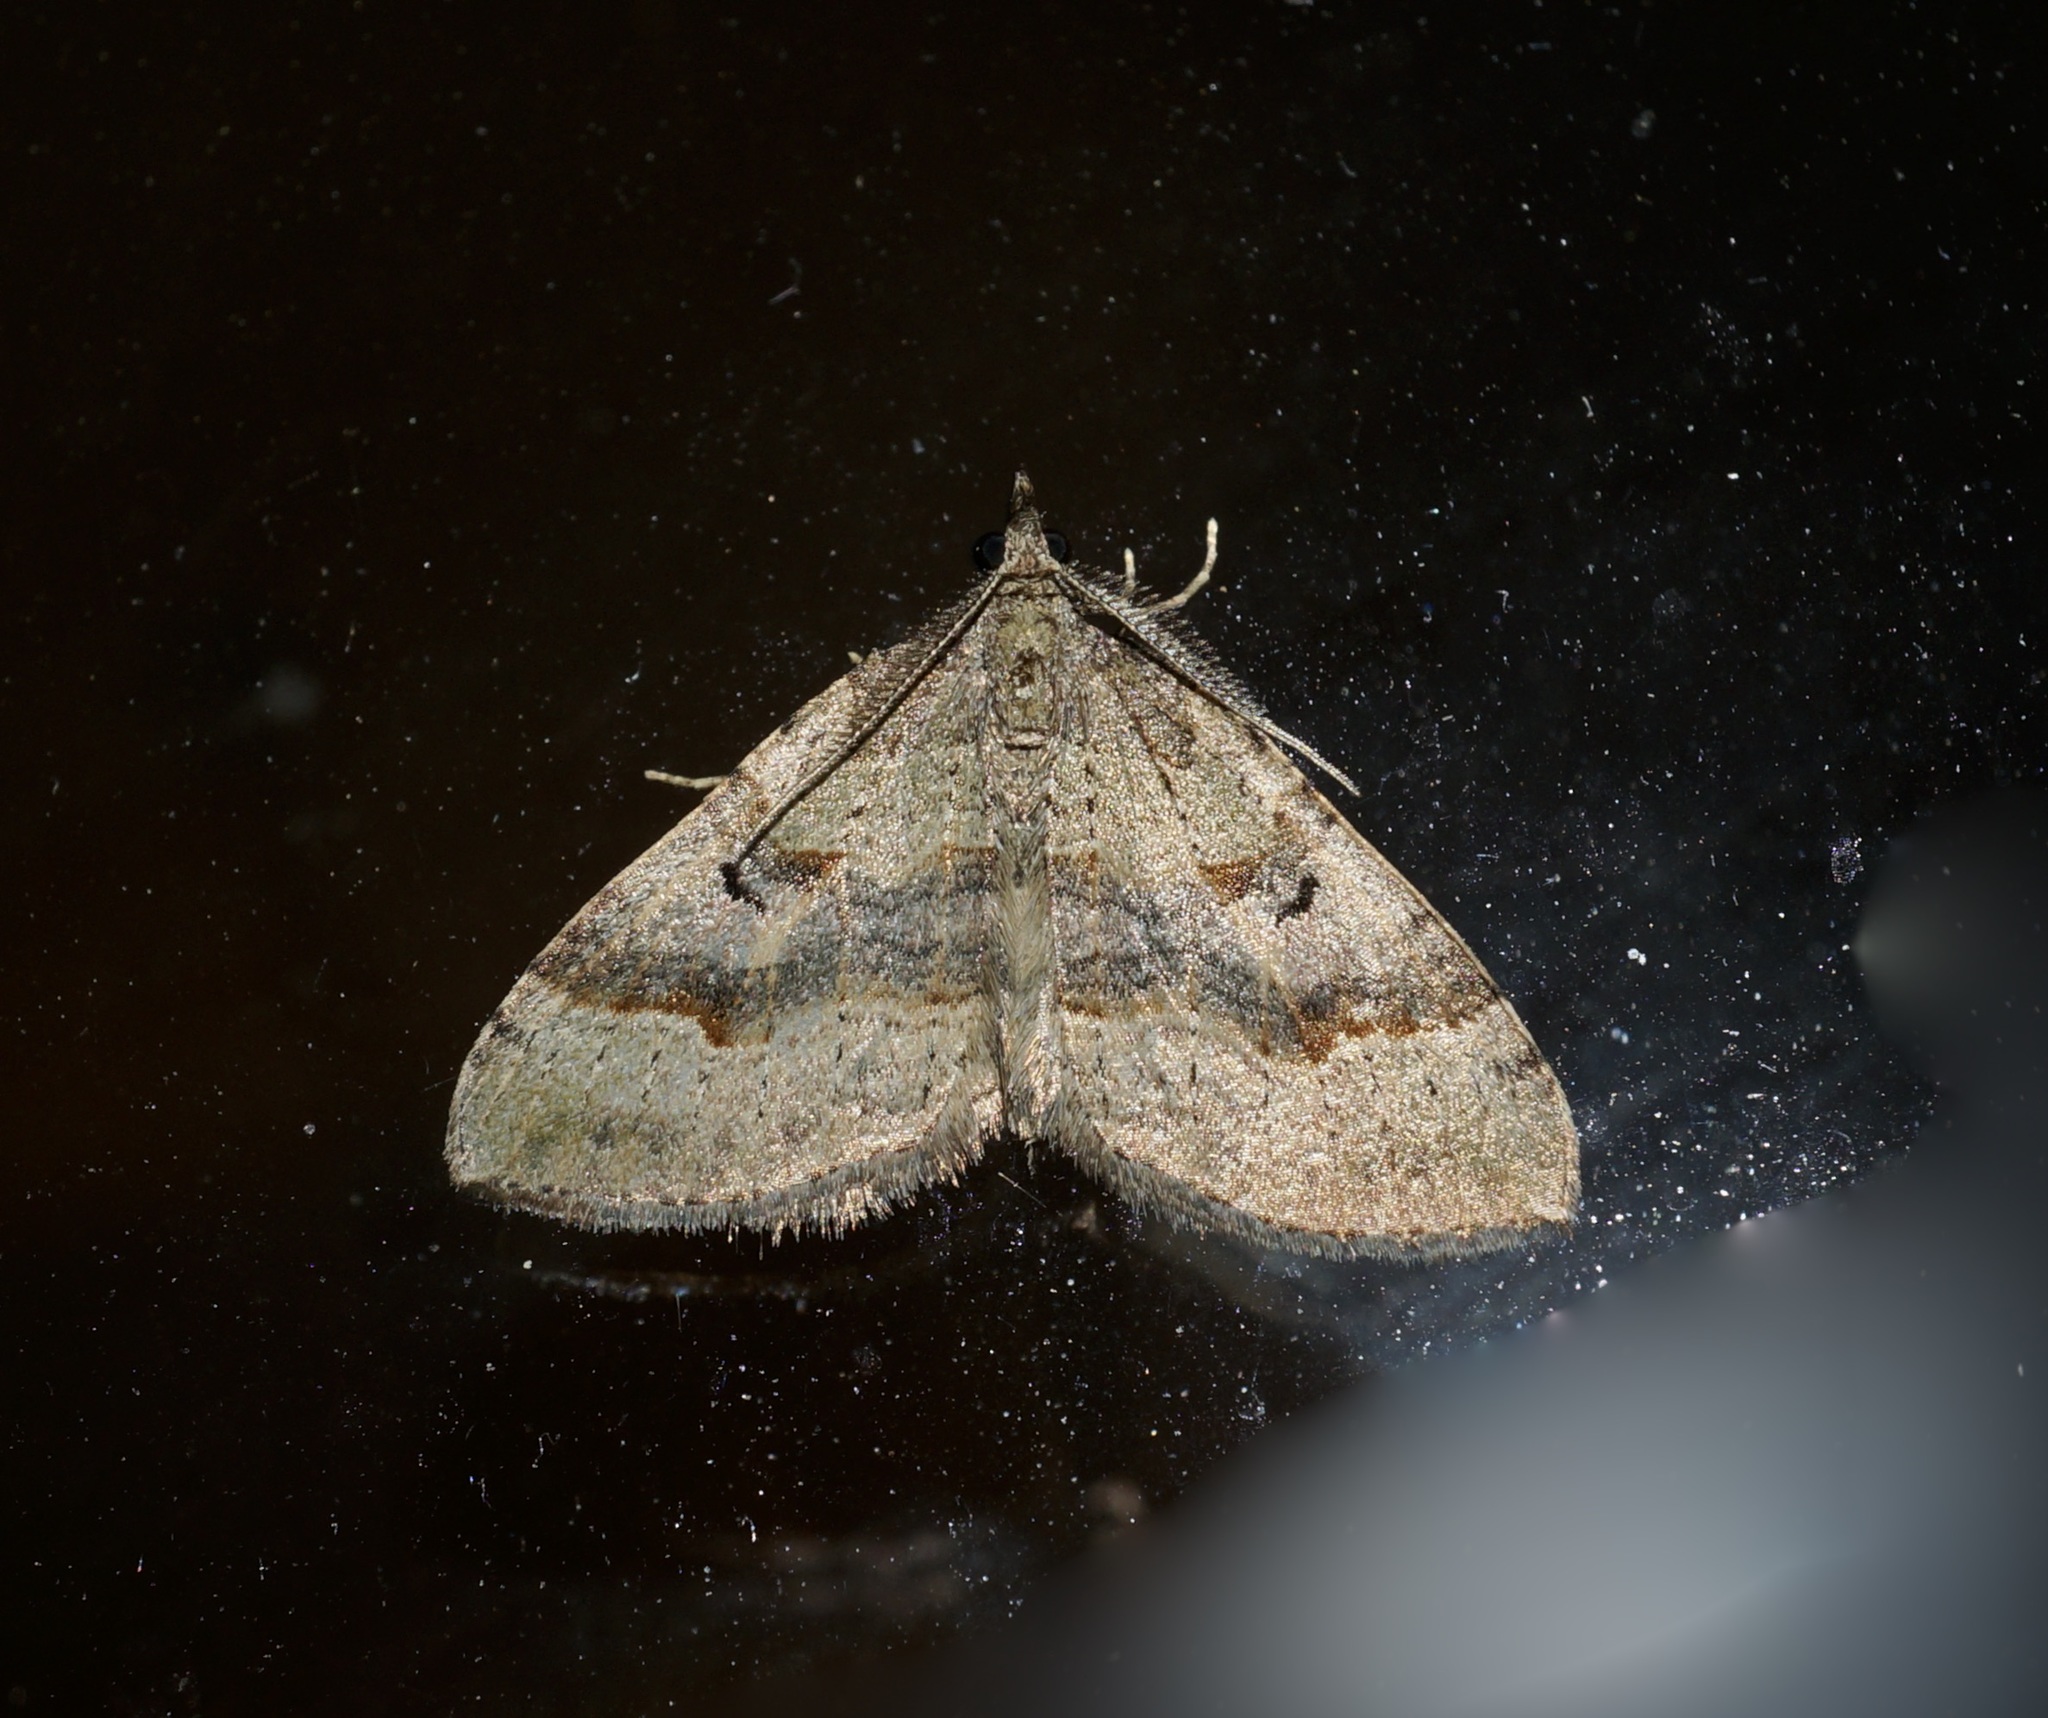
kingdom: Animalia
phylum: Arthropoda
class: Insecta
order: Lepidoptera
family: Geometridae
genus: Epyaxa
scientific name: Epyaxa rosearia
